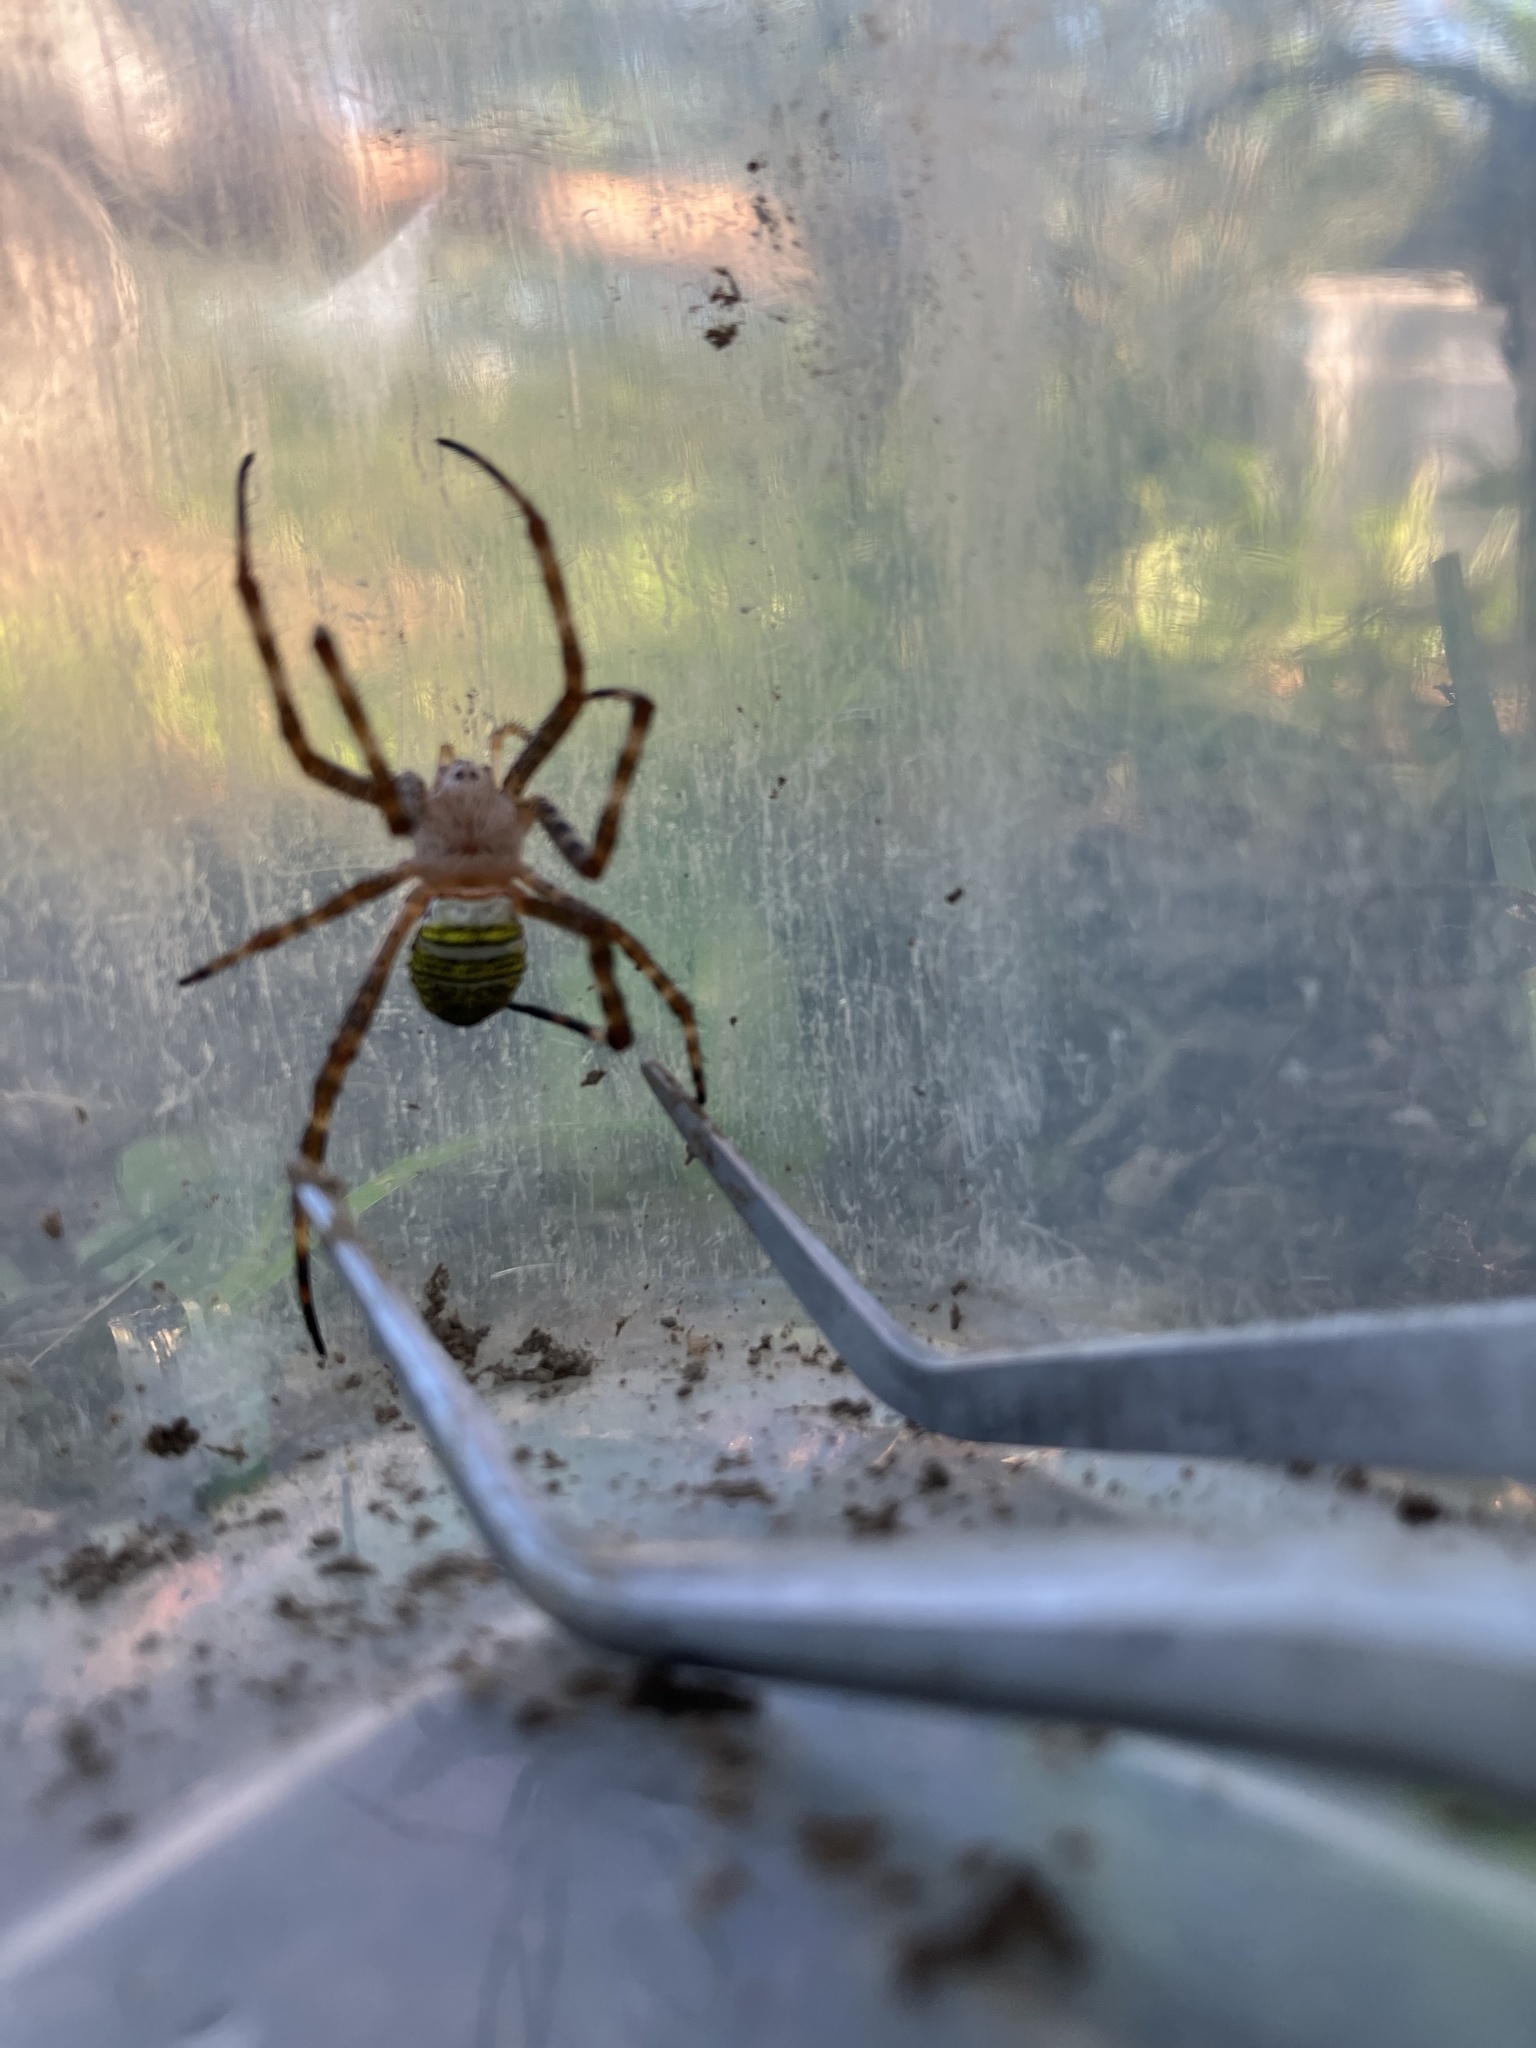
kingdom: Animalia
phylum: Arthropoda
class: Arachnida
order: Araneae
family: Araneidae
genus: Argiope
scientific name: Argiope aemula
